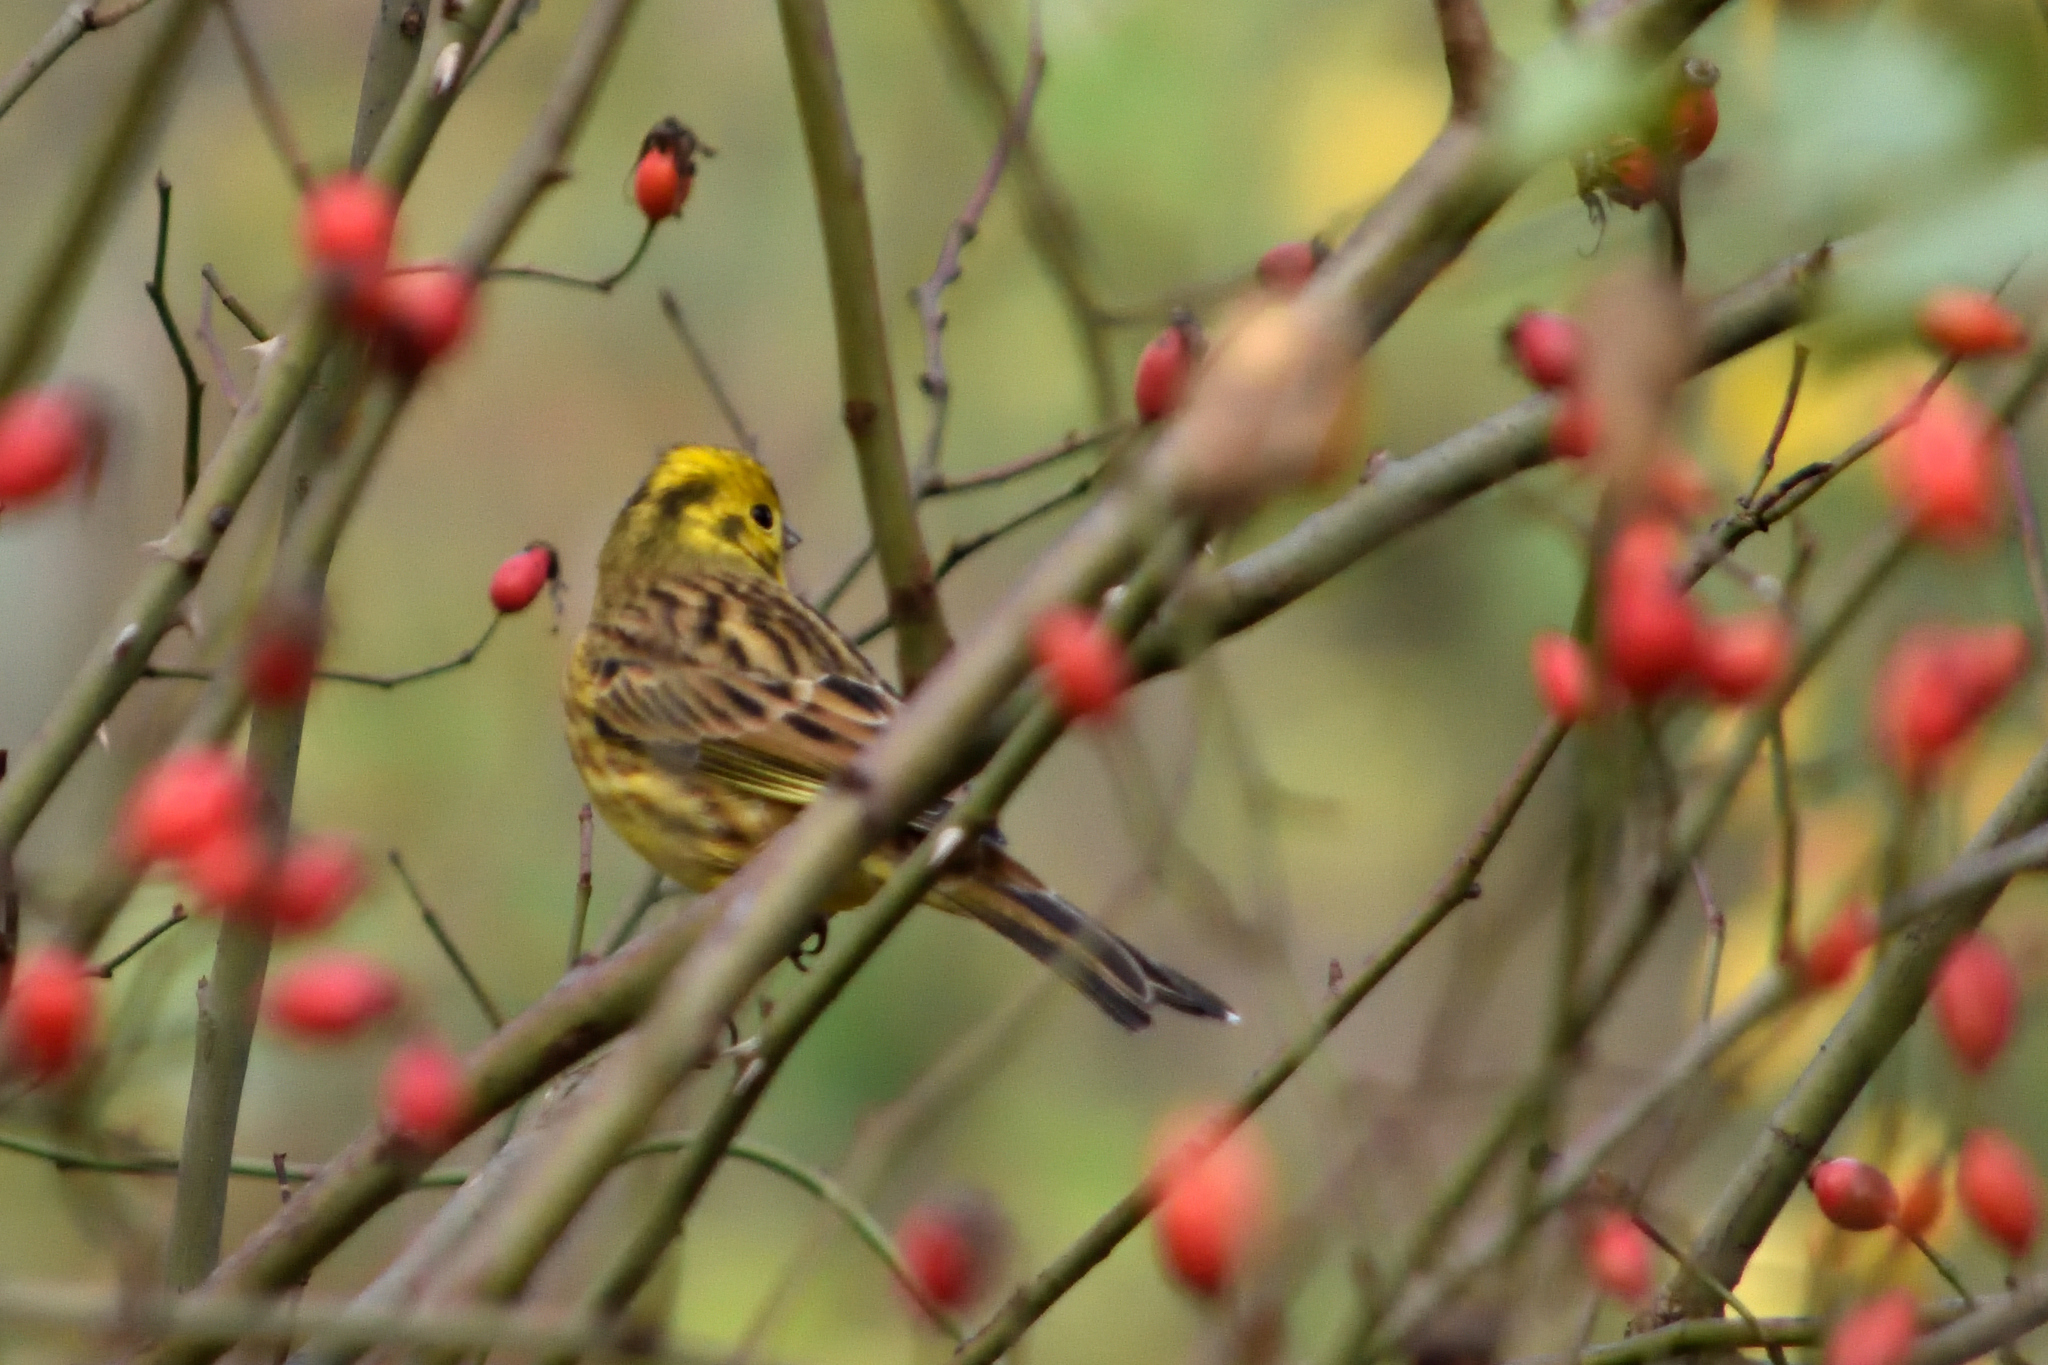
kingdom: Animalia
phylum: Chordata
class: Aves
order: Passeriformes
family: Emberizidae
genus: Emberiza
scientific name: Emberiza citrinella
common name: Yellowhammer
